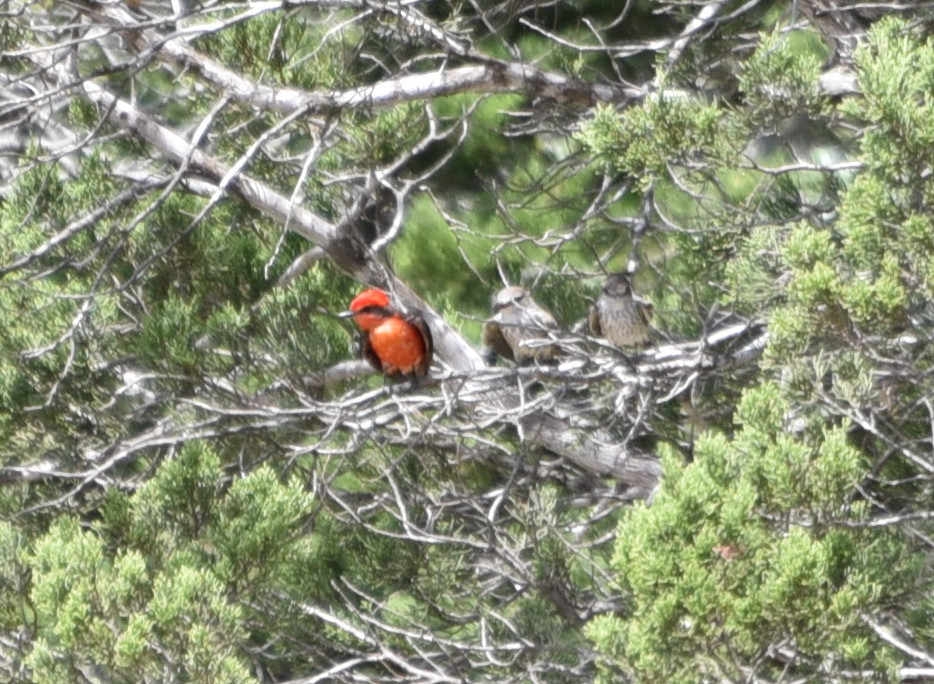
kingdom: Animalia
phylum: Chordata
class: Aves
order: Passeriformes
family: Tyrannidae
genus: Pyrocephalus
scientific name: Pyrocephalus rubinus
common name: Vermilion flycatcher
